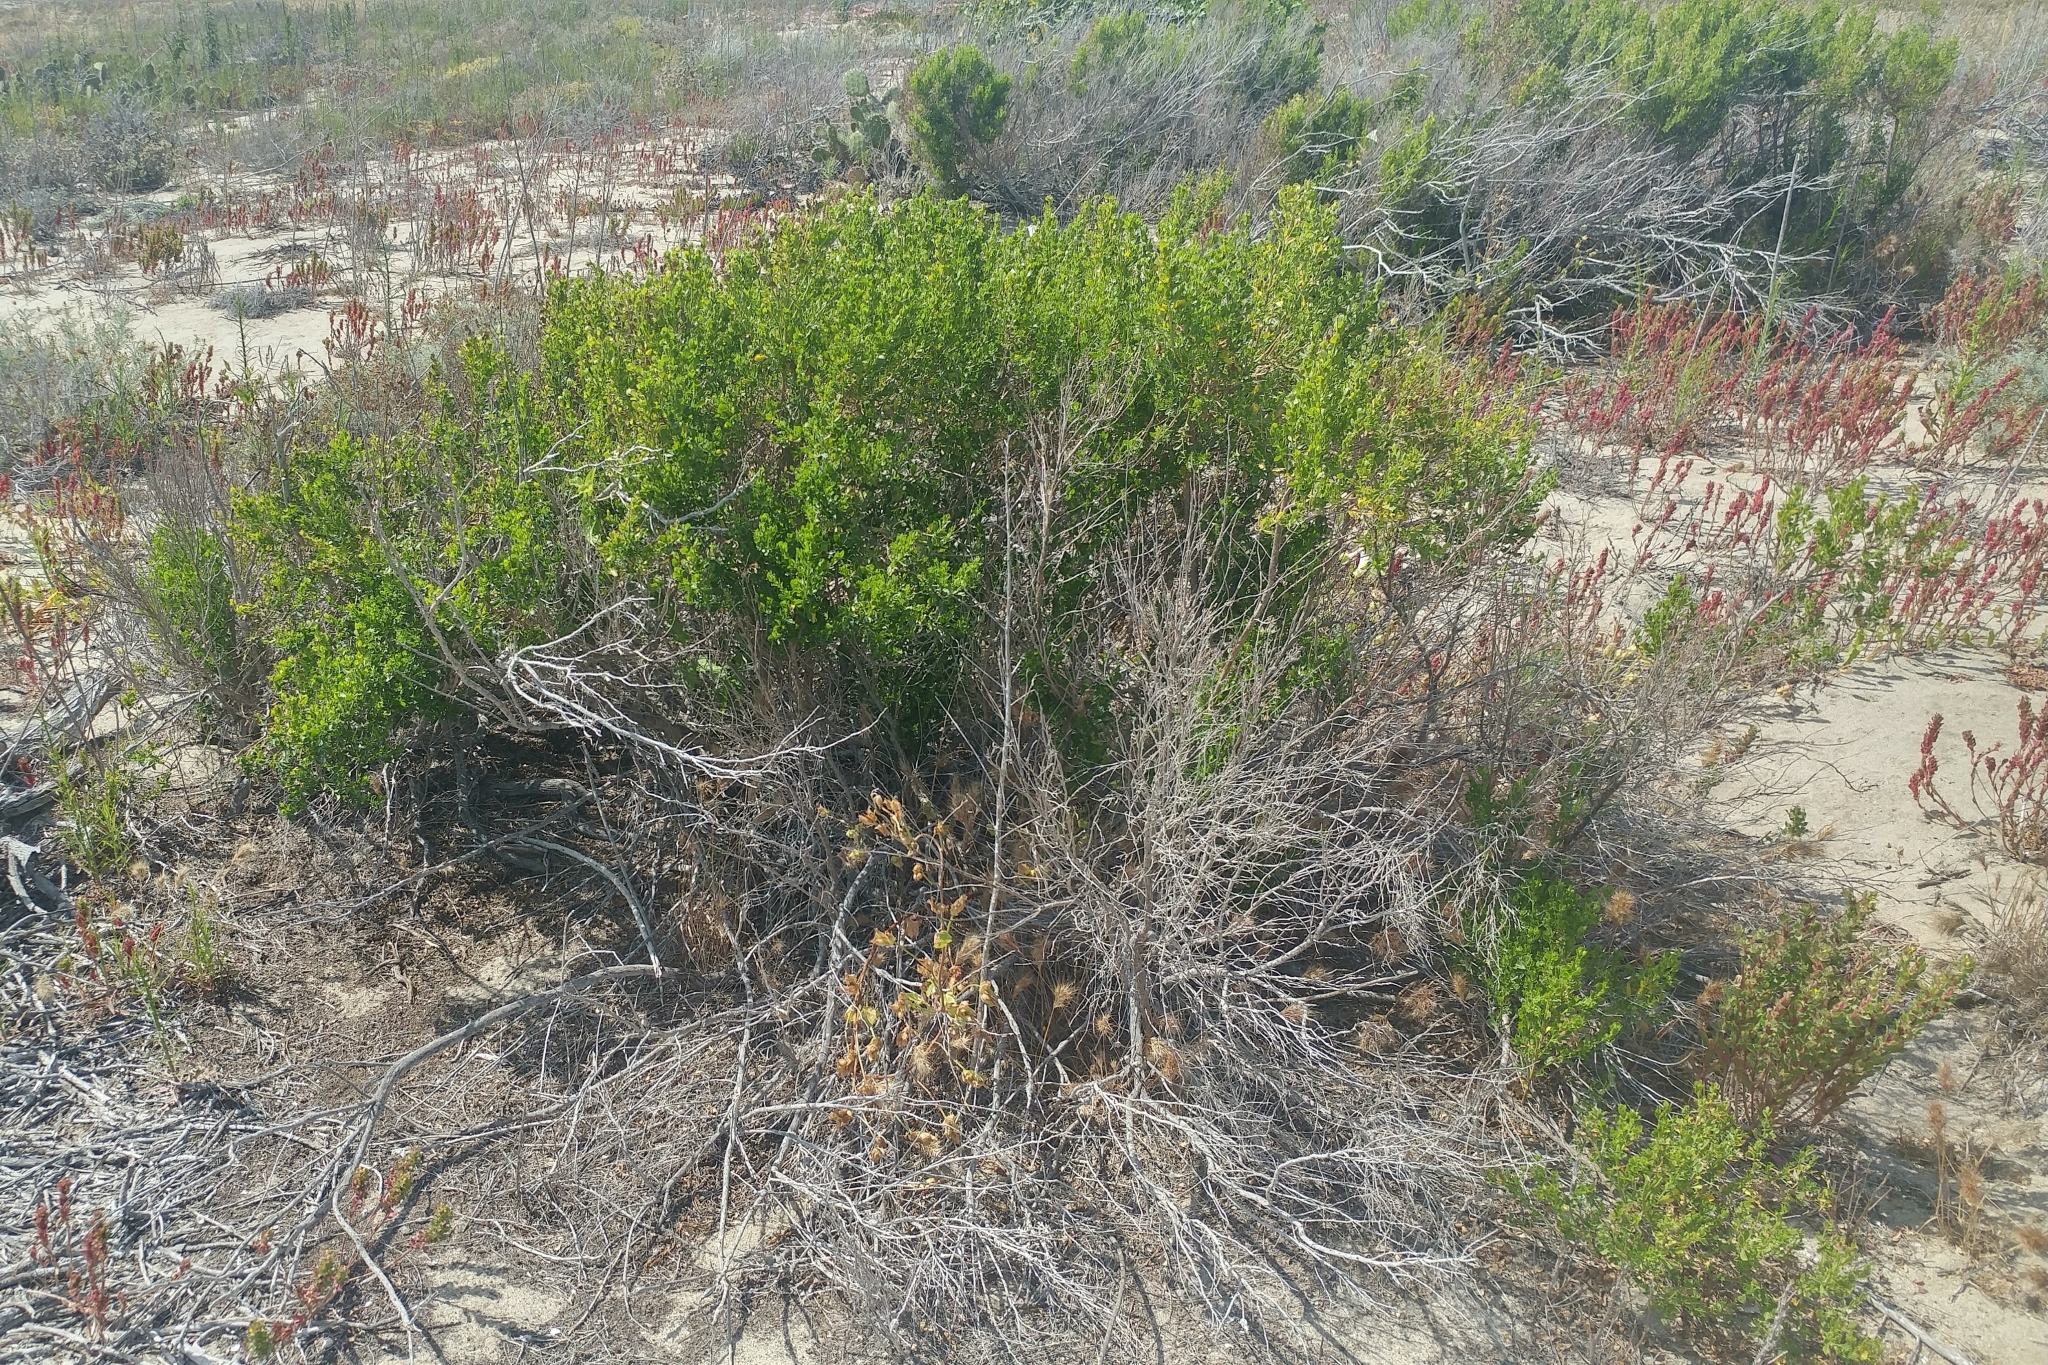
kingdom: Plantae
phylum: Tracheophyta
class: Magnoliopsida
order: Asterales
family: Asteraceae
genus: Baccharis
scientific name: Baccharis pilularis
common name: Coyotebrush
